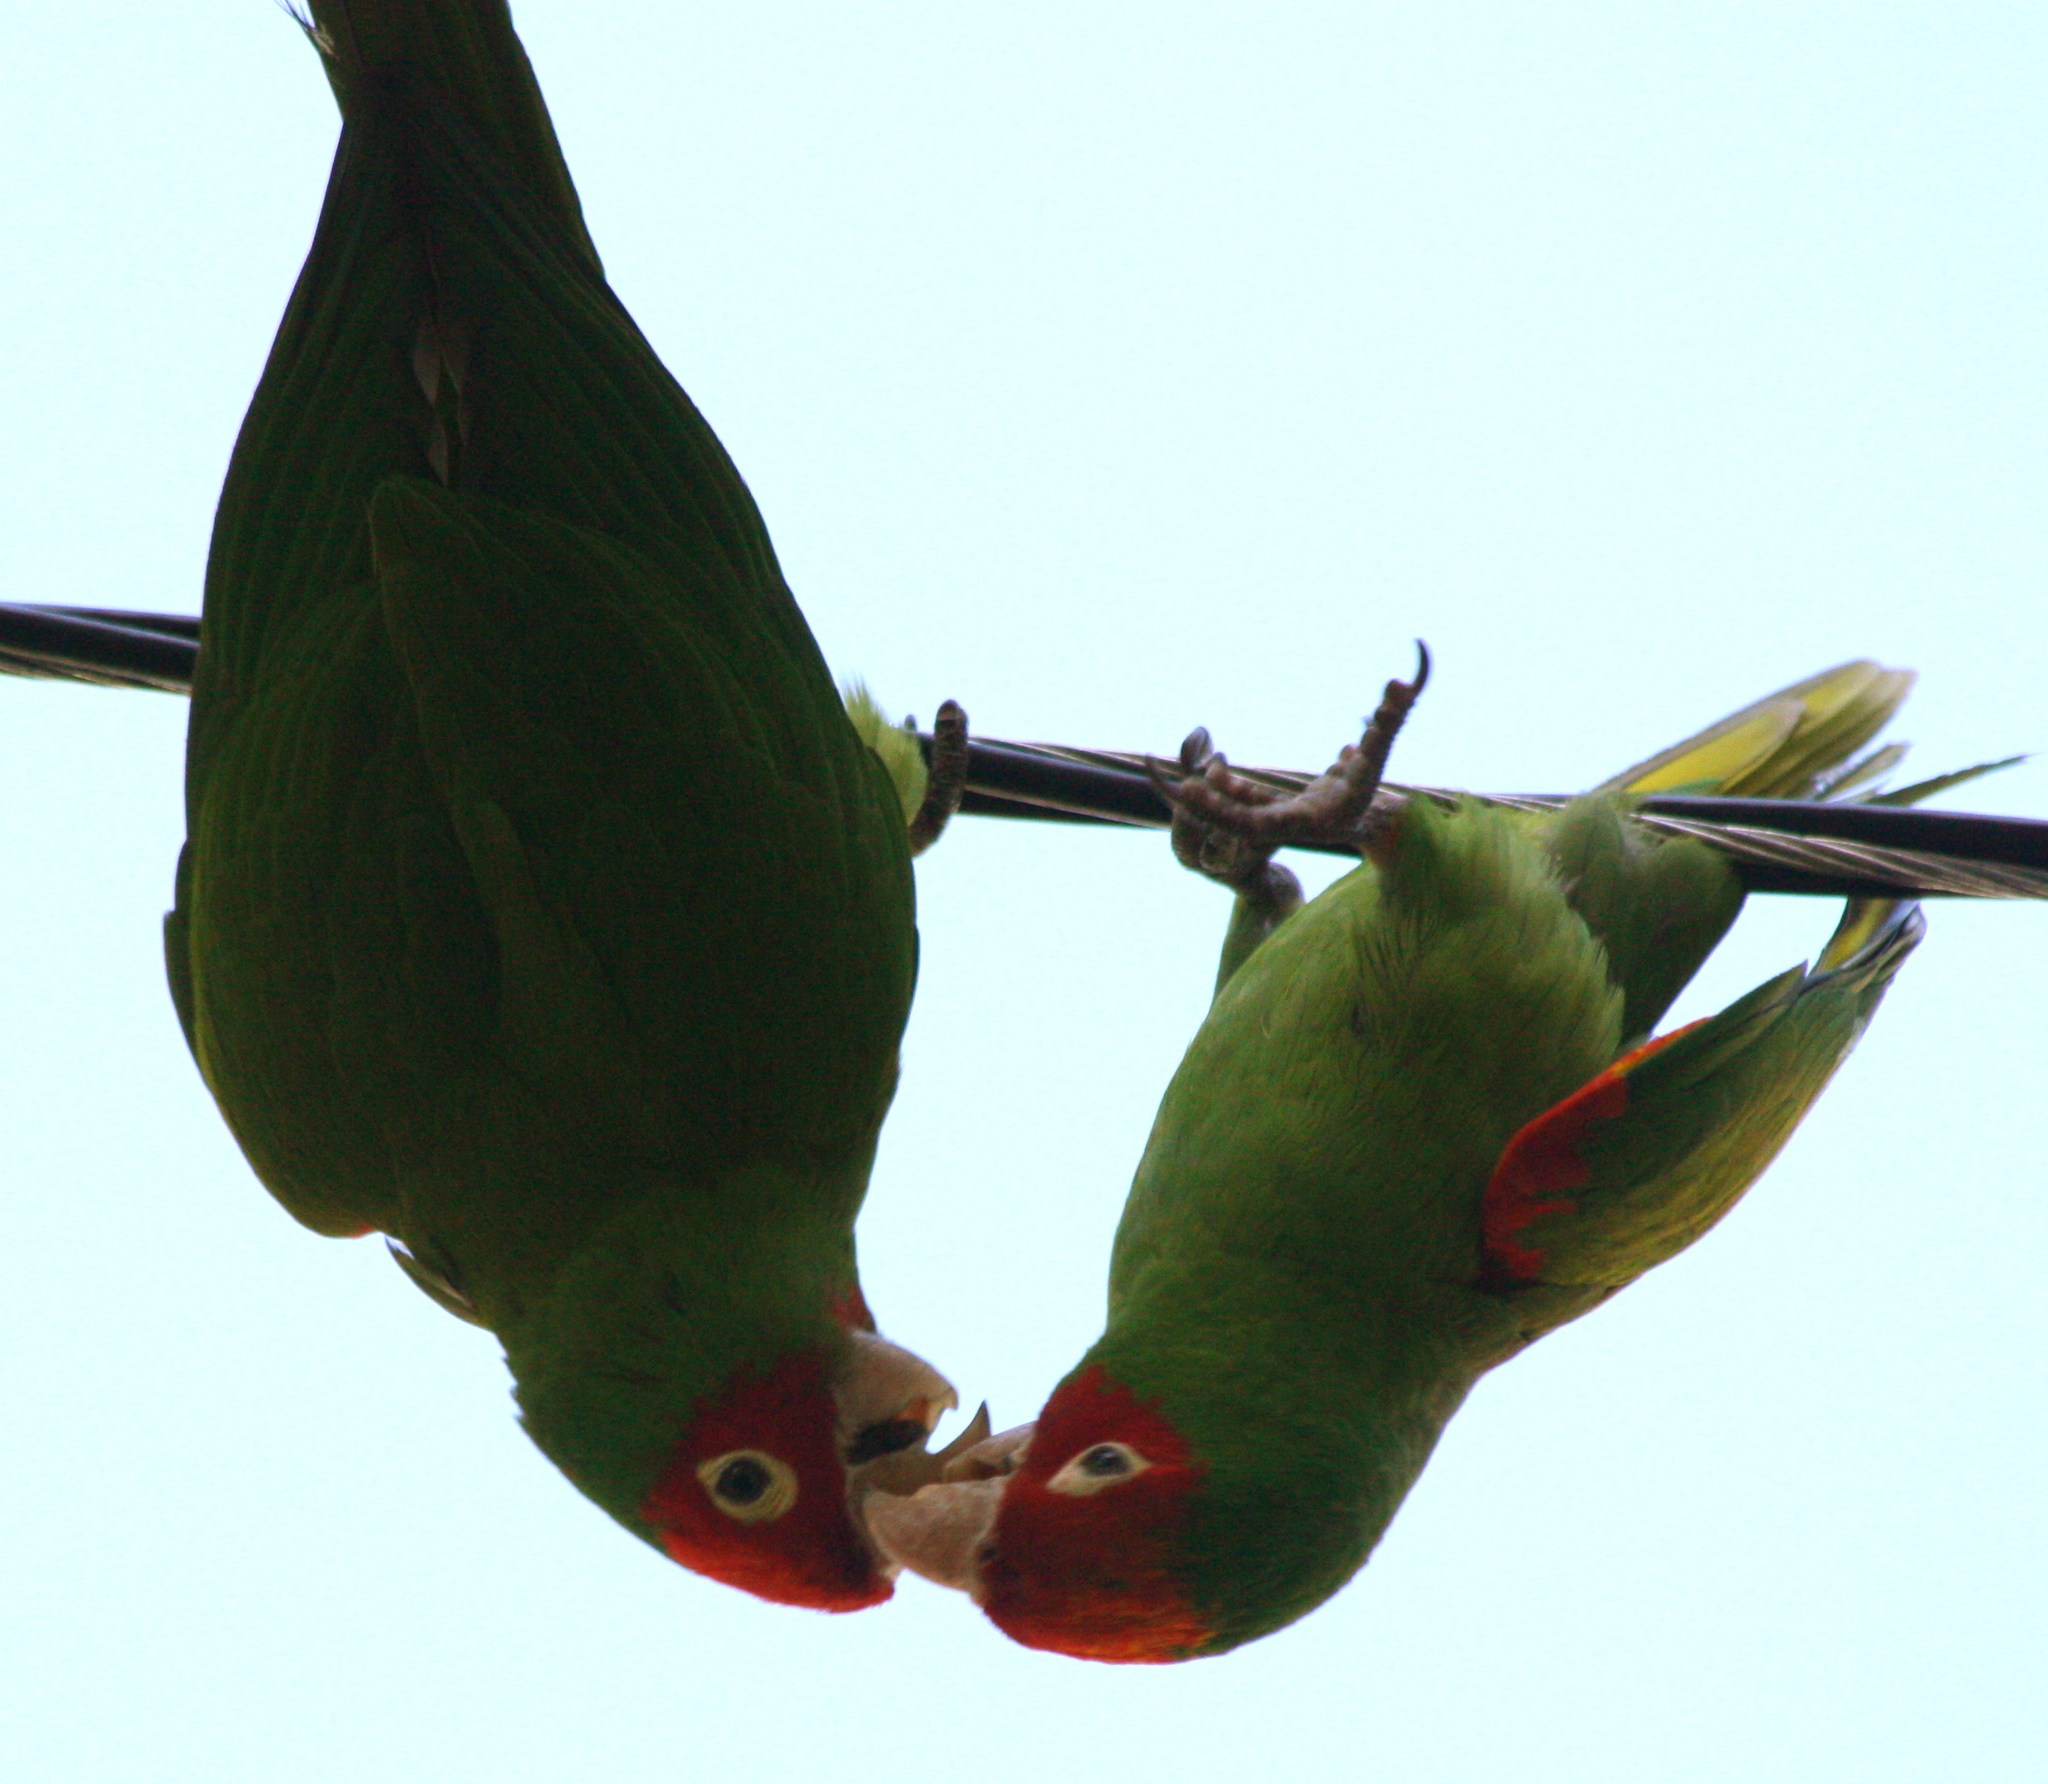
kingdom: Animalia
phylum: Chordata
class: Aves
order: Psittaciformes
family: Psittacidae
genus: Aratinga
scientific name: Aratinga erythrogenys
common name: Red-masked parakeet
